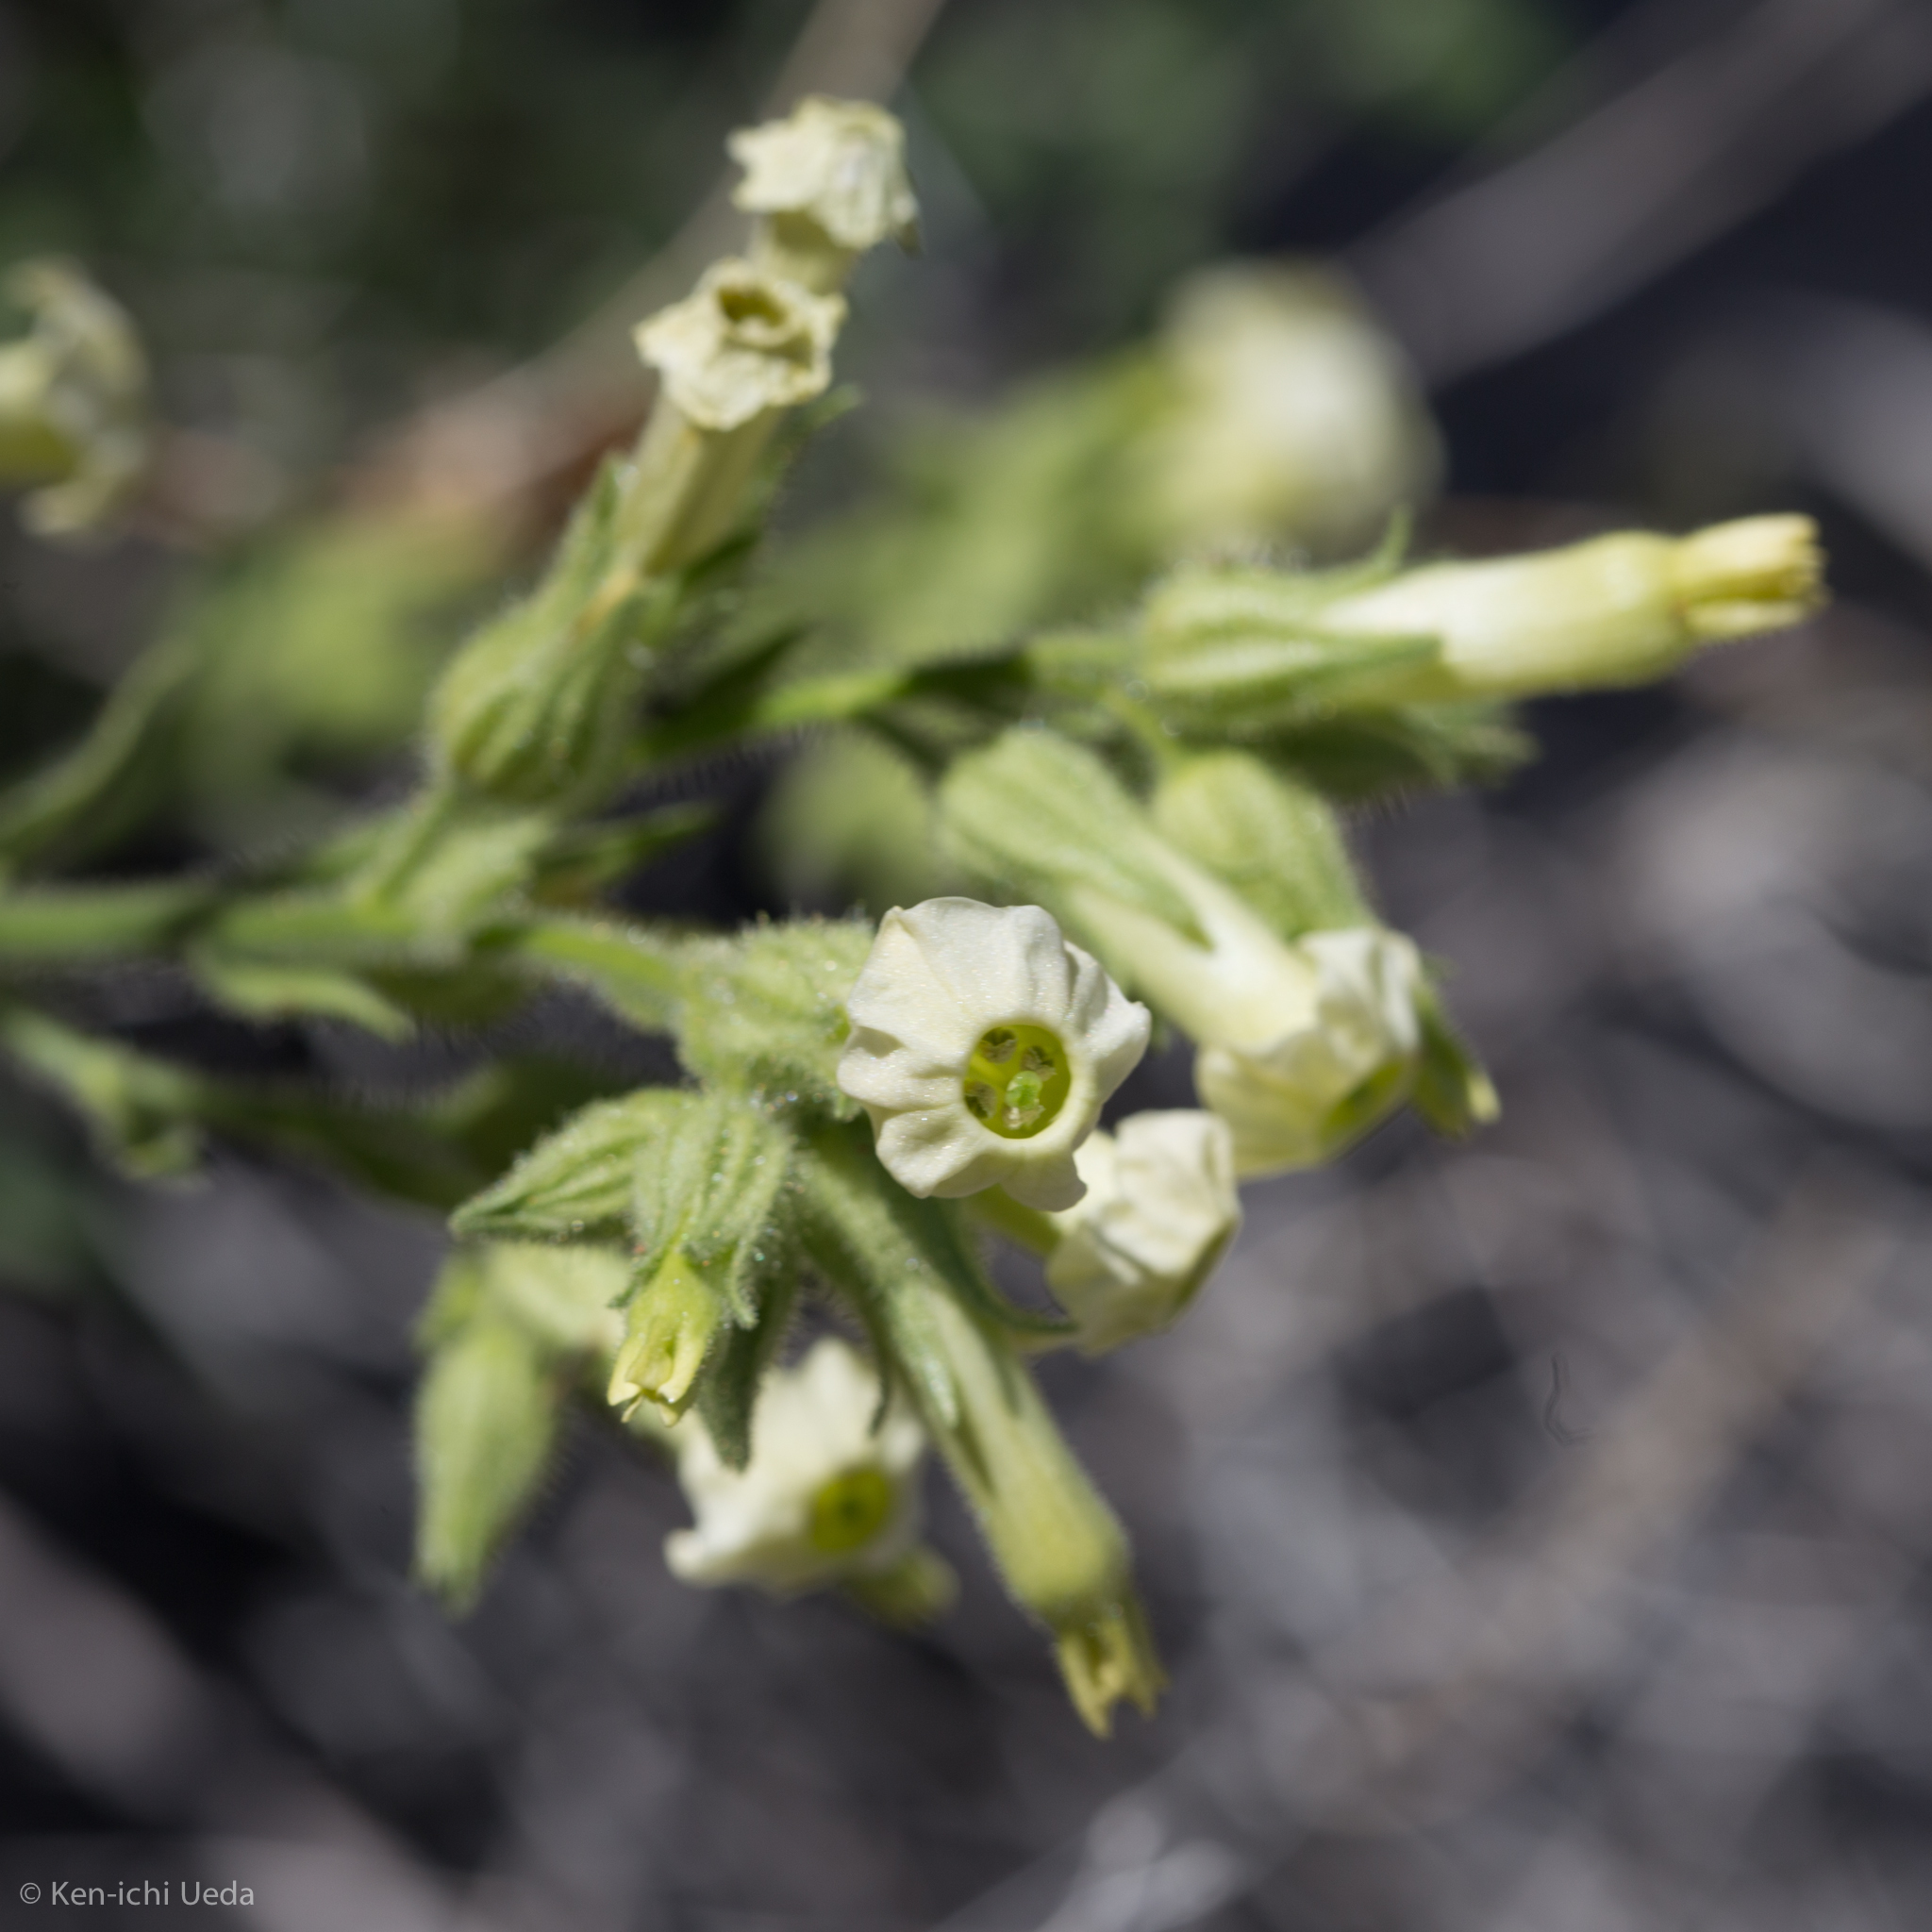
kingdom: Plantae
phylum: Tracheophyta
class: Magnoliopsida
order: Solanales
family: Solanaceae
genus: Nicotiana
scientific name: Nicotiana obtusifolia
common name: Desert tobacco
